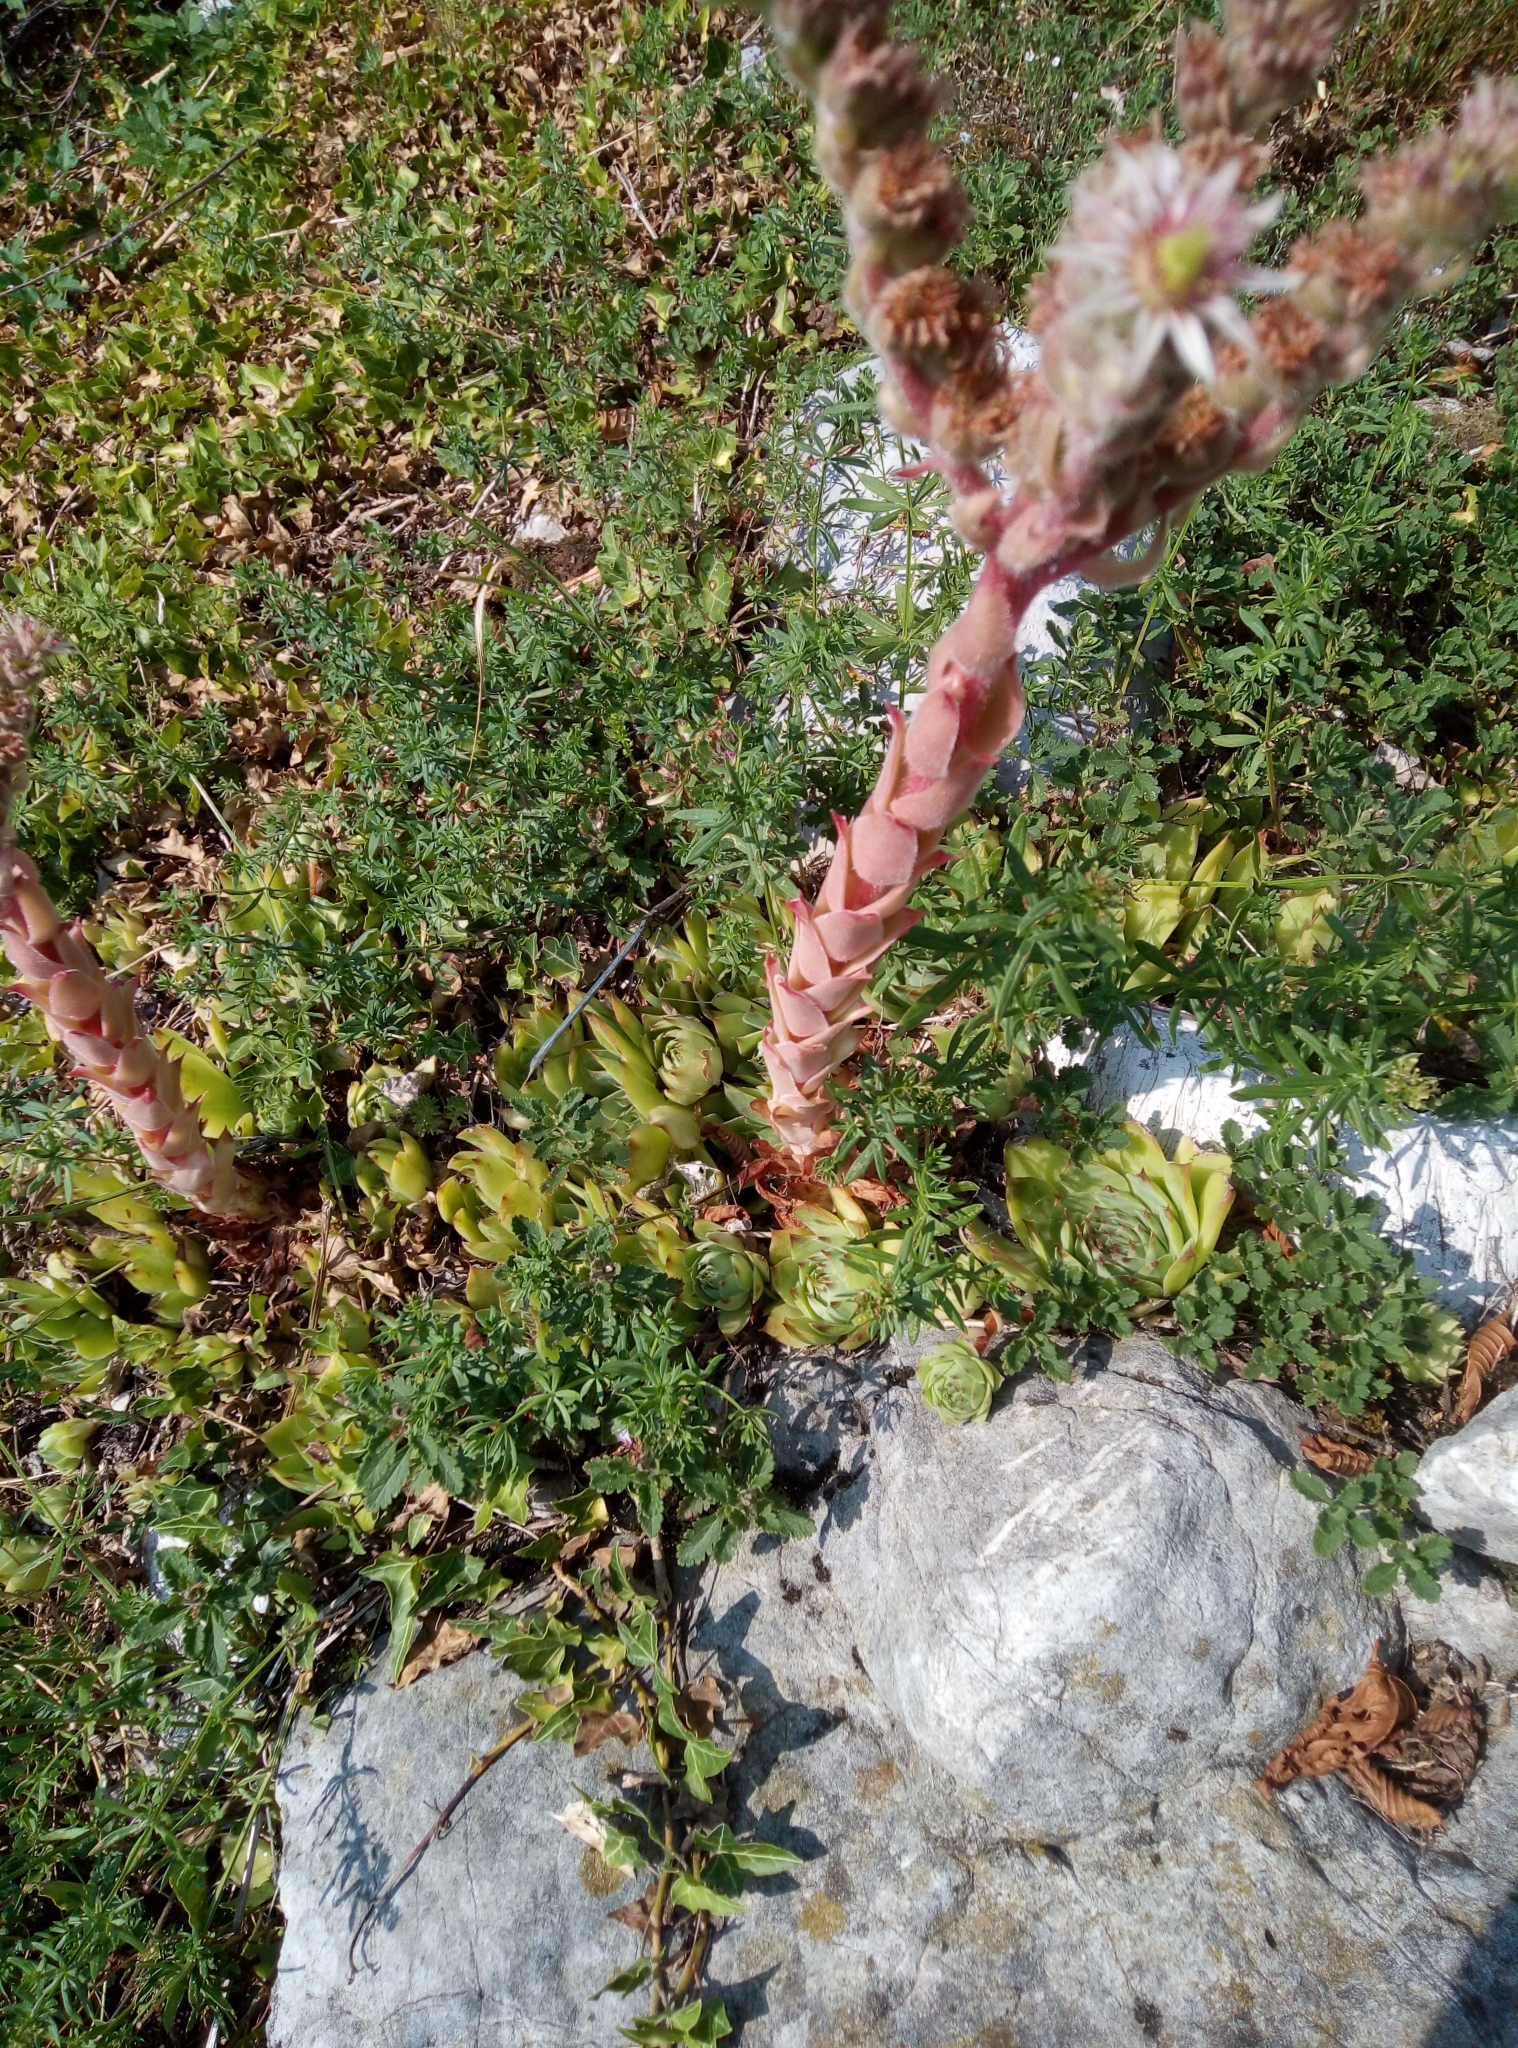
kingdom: Plantae
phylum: Tracheophyta
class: Magnoliopsida
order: Saxifragales
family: Crassulaceae
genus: Sempervivum
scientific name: Sempervivum tectorum
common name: House-leek
